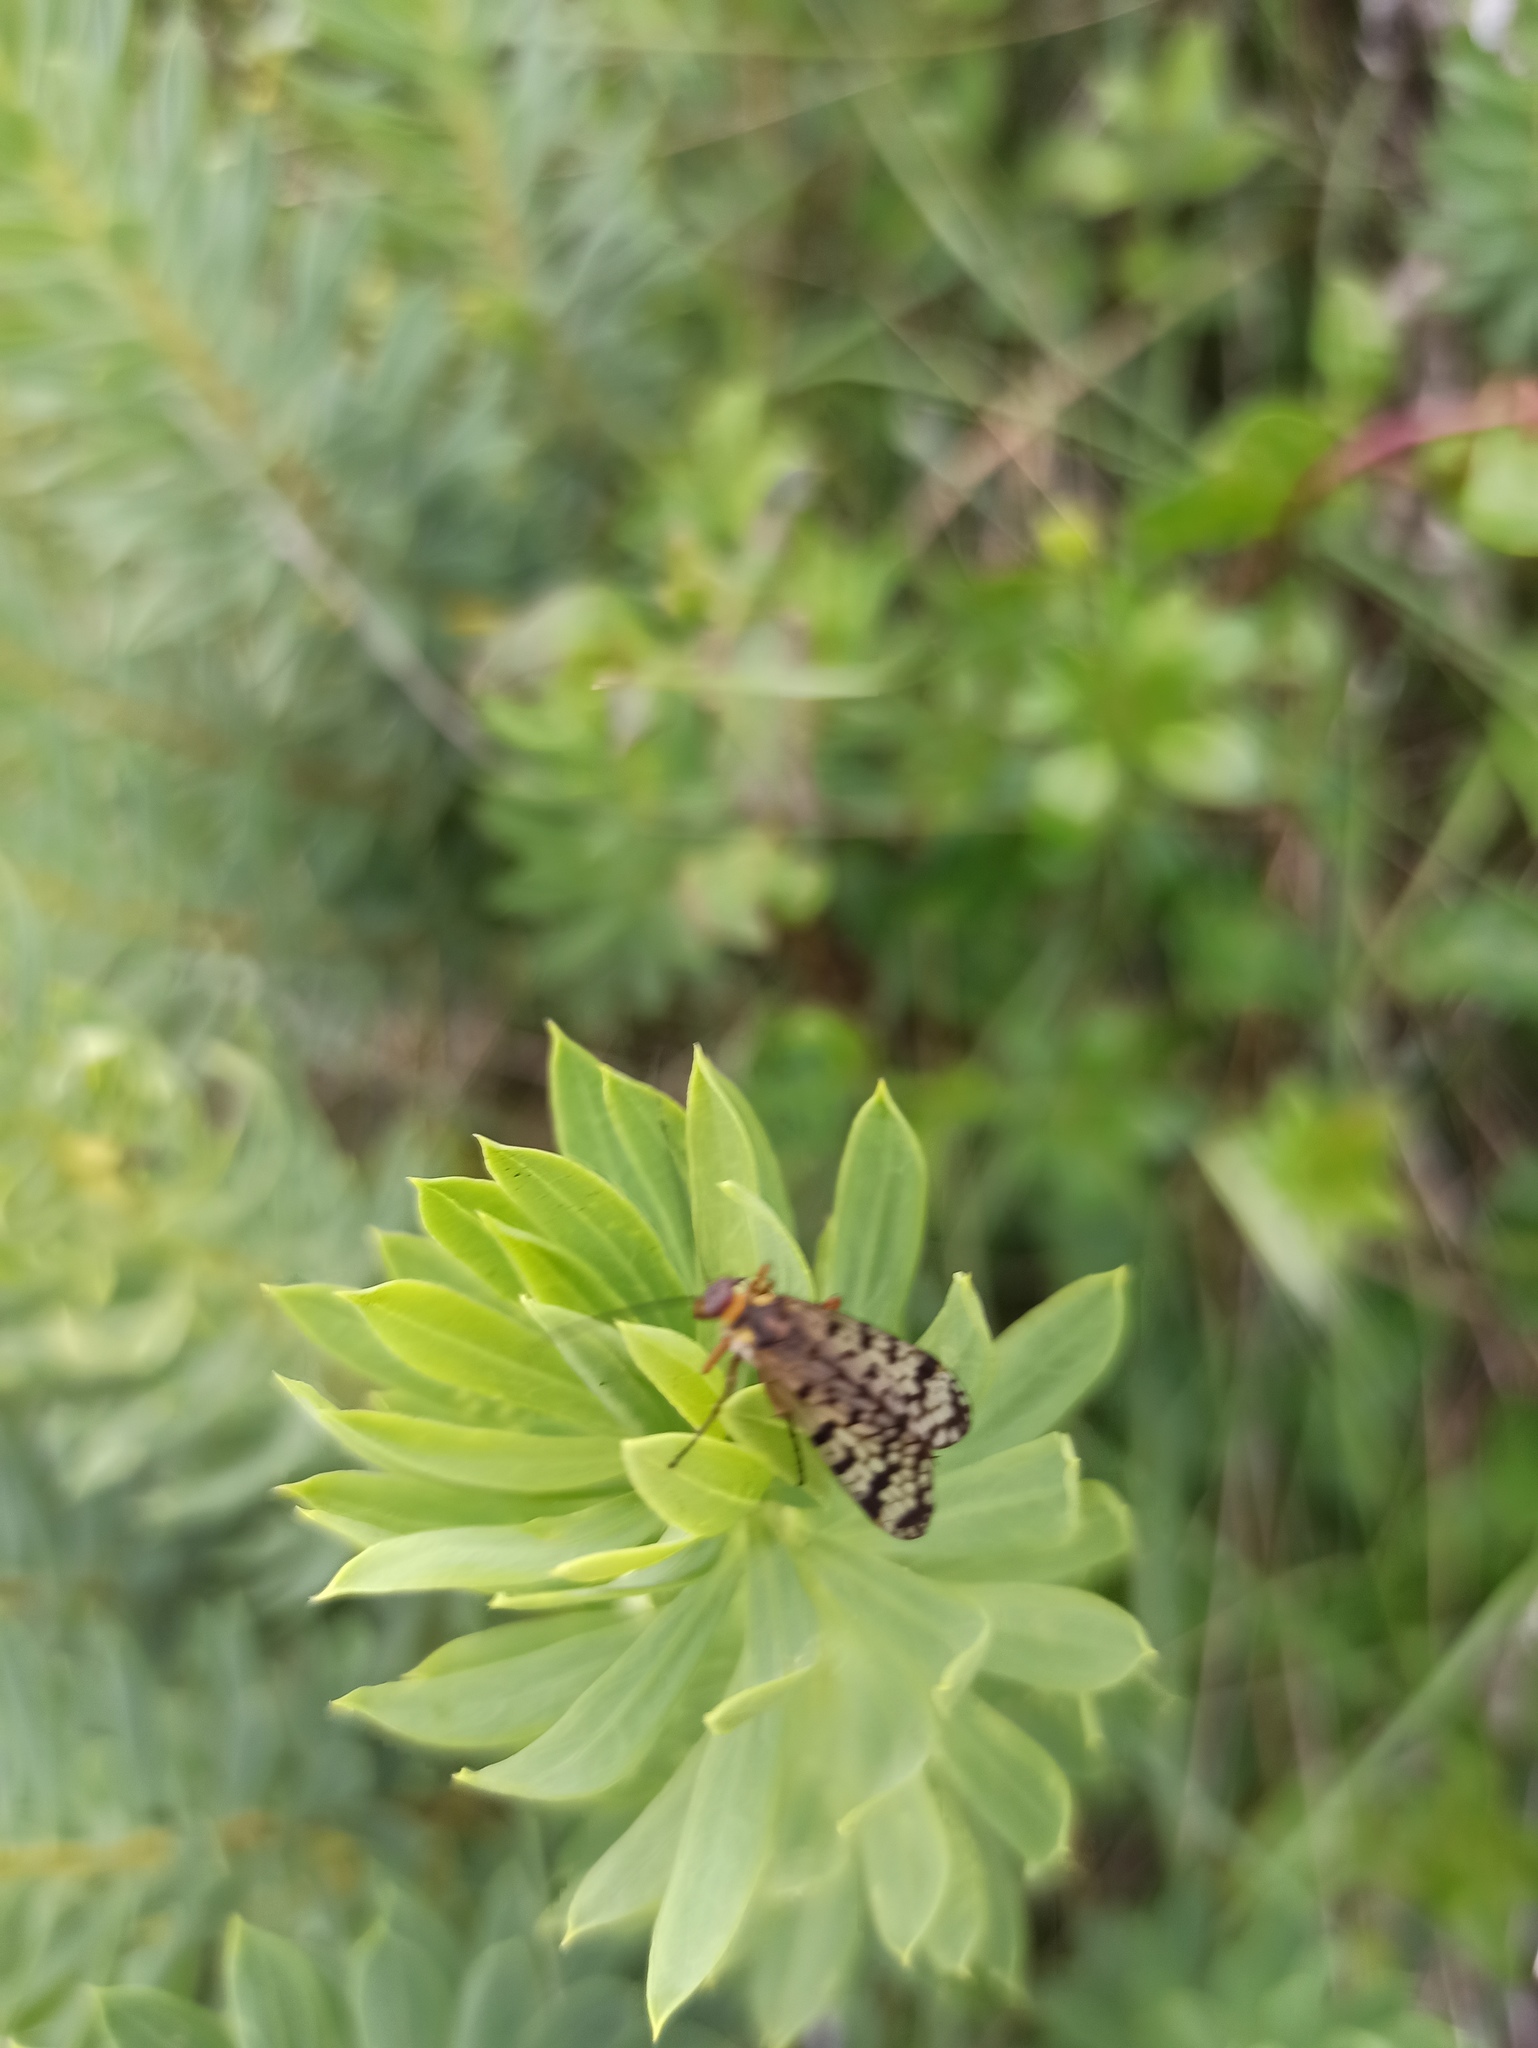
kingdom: Animalia
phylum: Arthropoda
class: Insecta
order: Mecoptera
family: Panorpidae
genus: Panorpa
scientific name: Panorpa meridionalis
